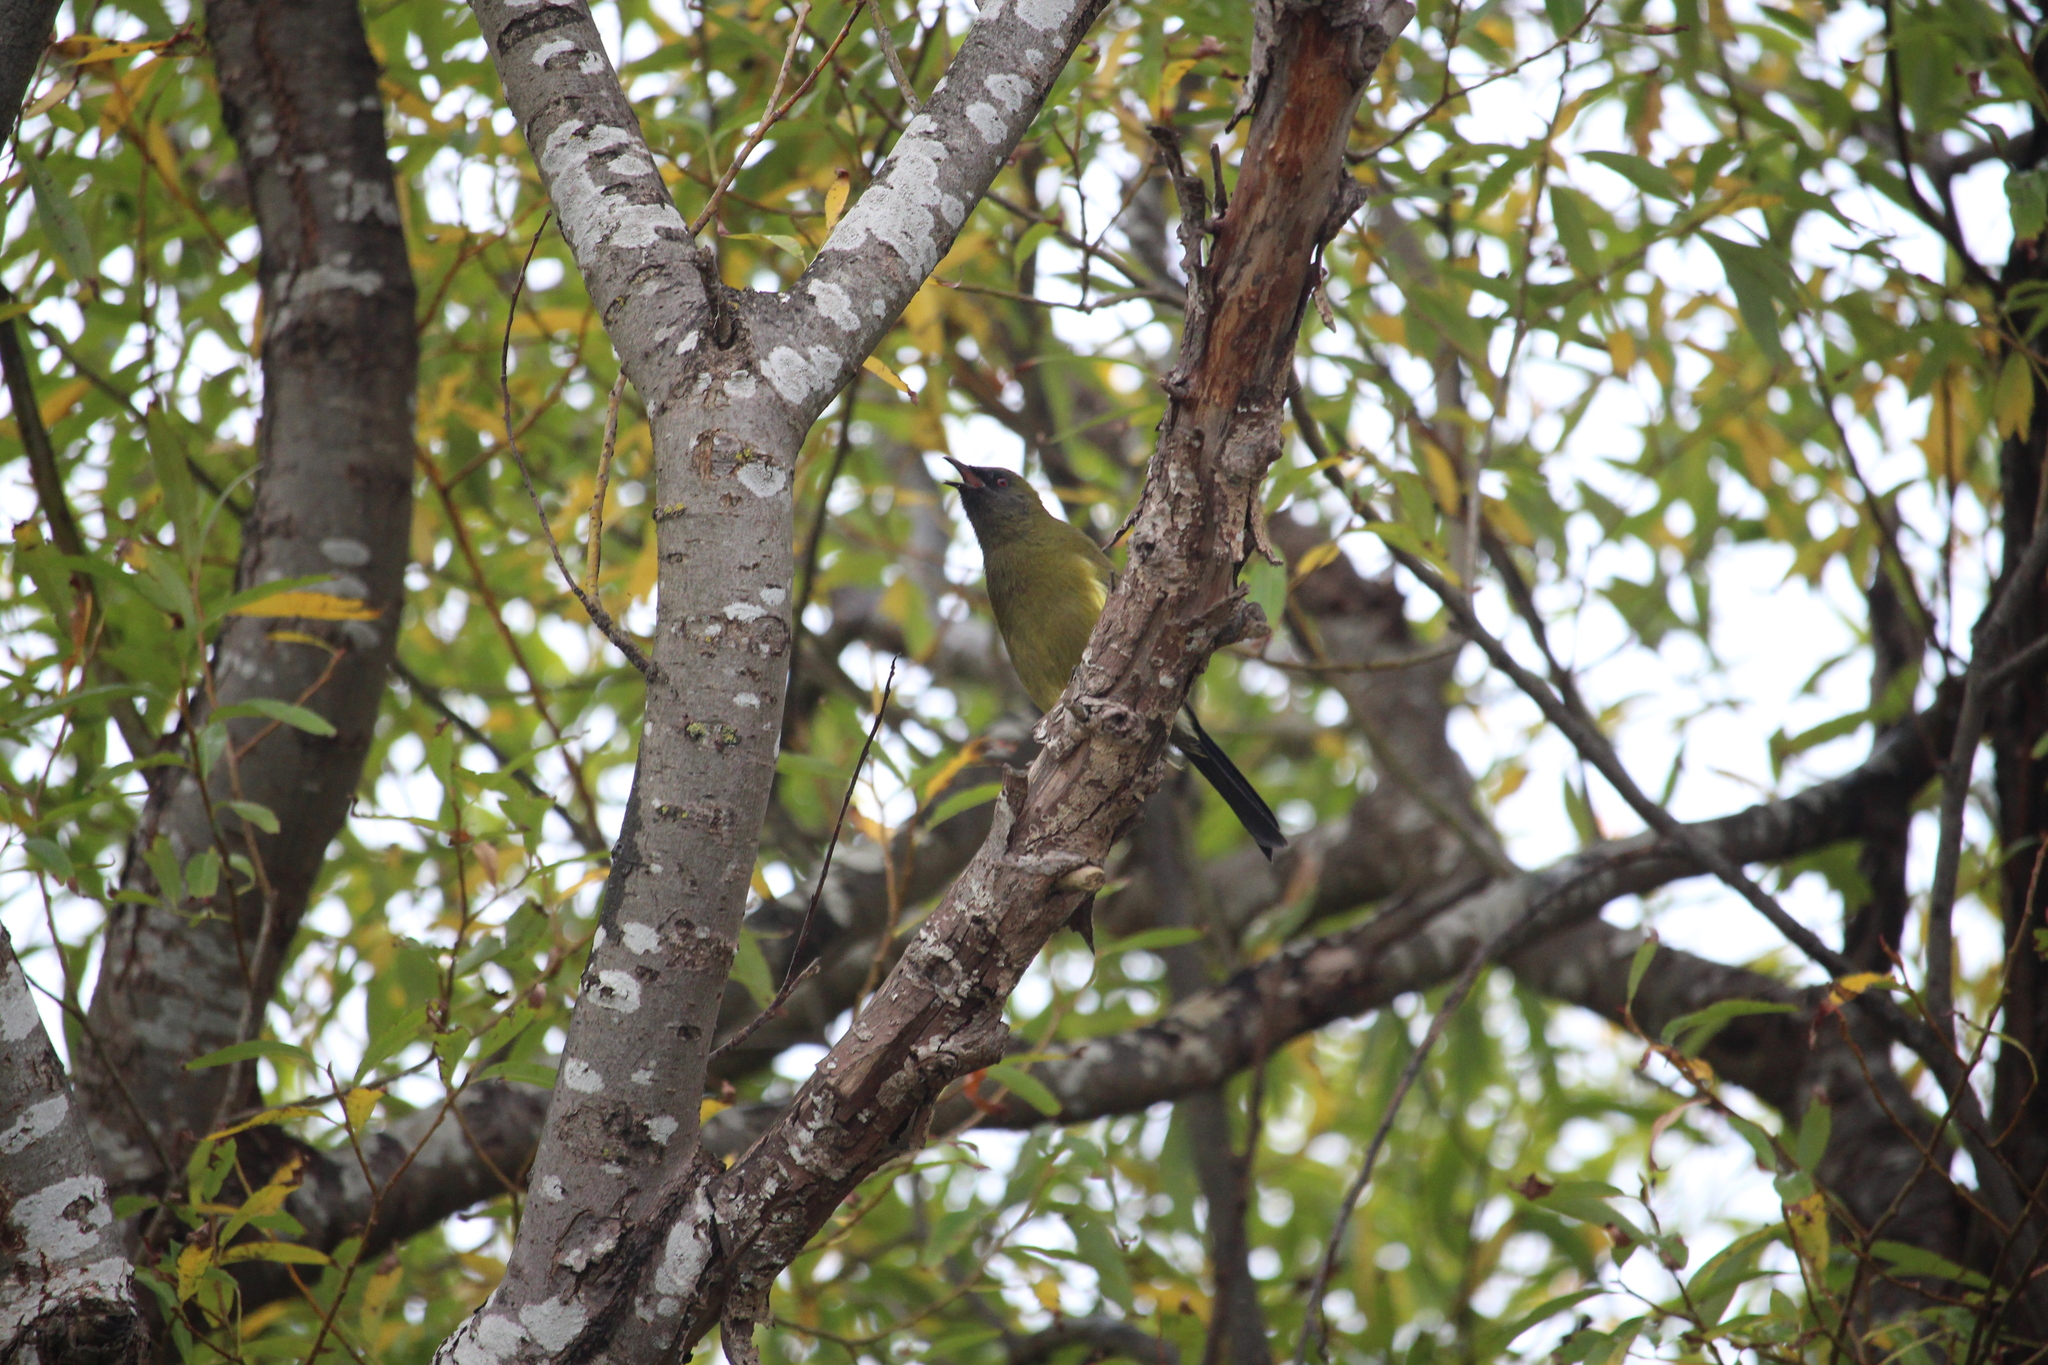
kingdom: Animalia
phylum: Chordata
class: Aves
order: Passeriformes
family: Meliphagidae
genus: Anthornis
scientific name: Anthornis melanura
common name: New zealand bellbird
